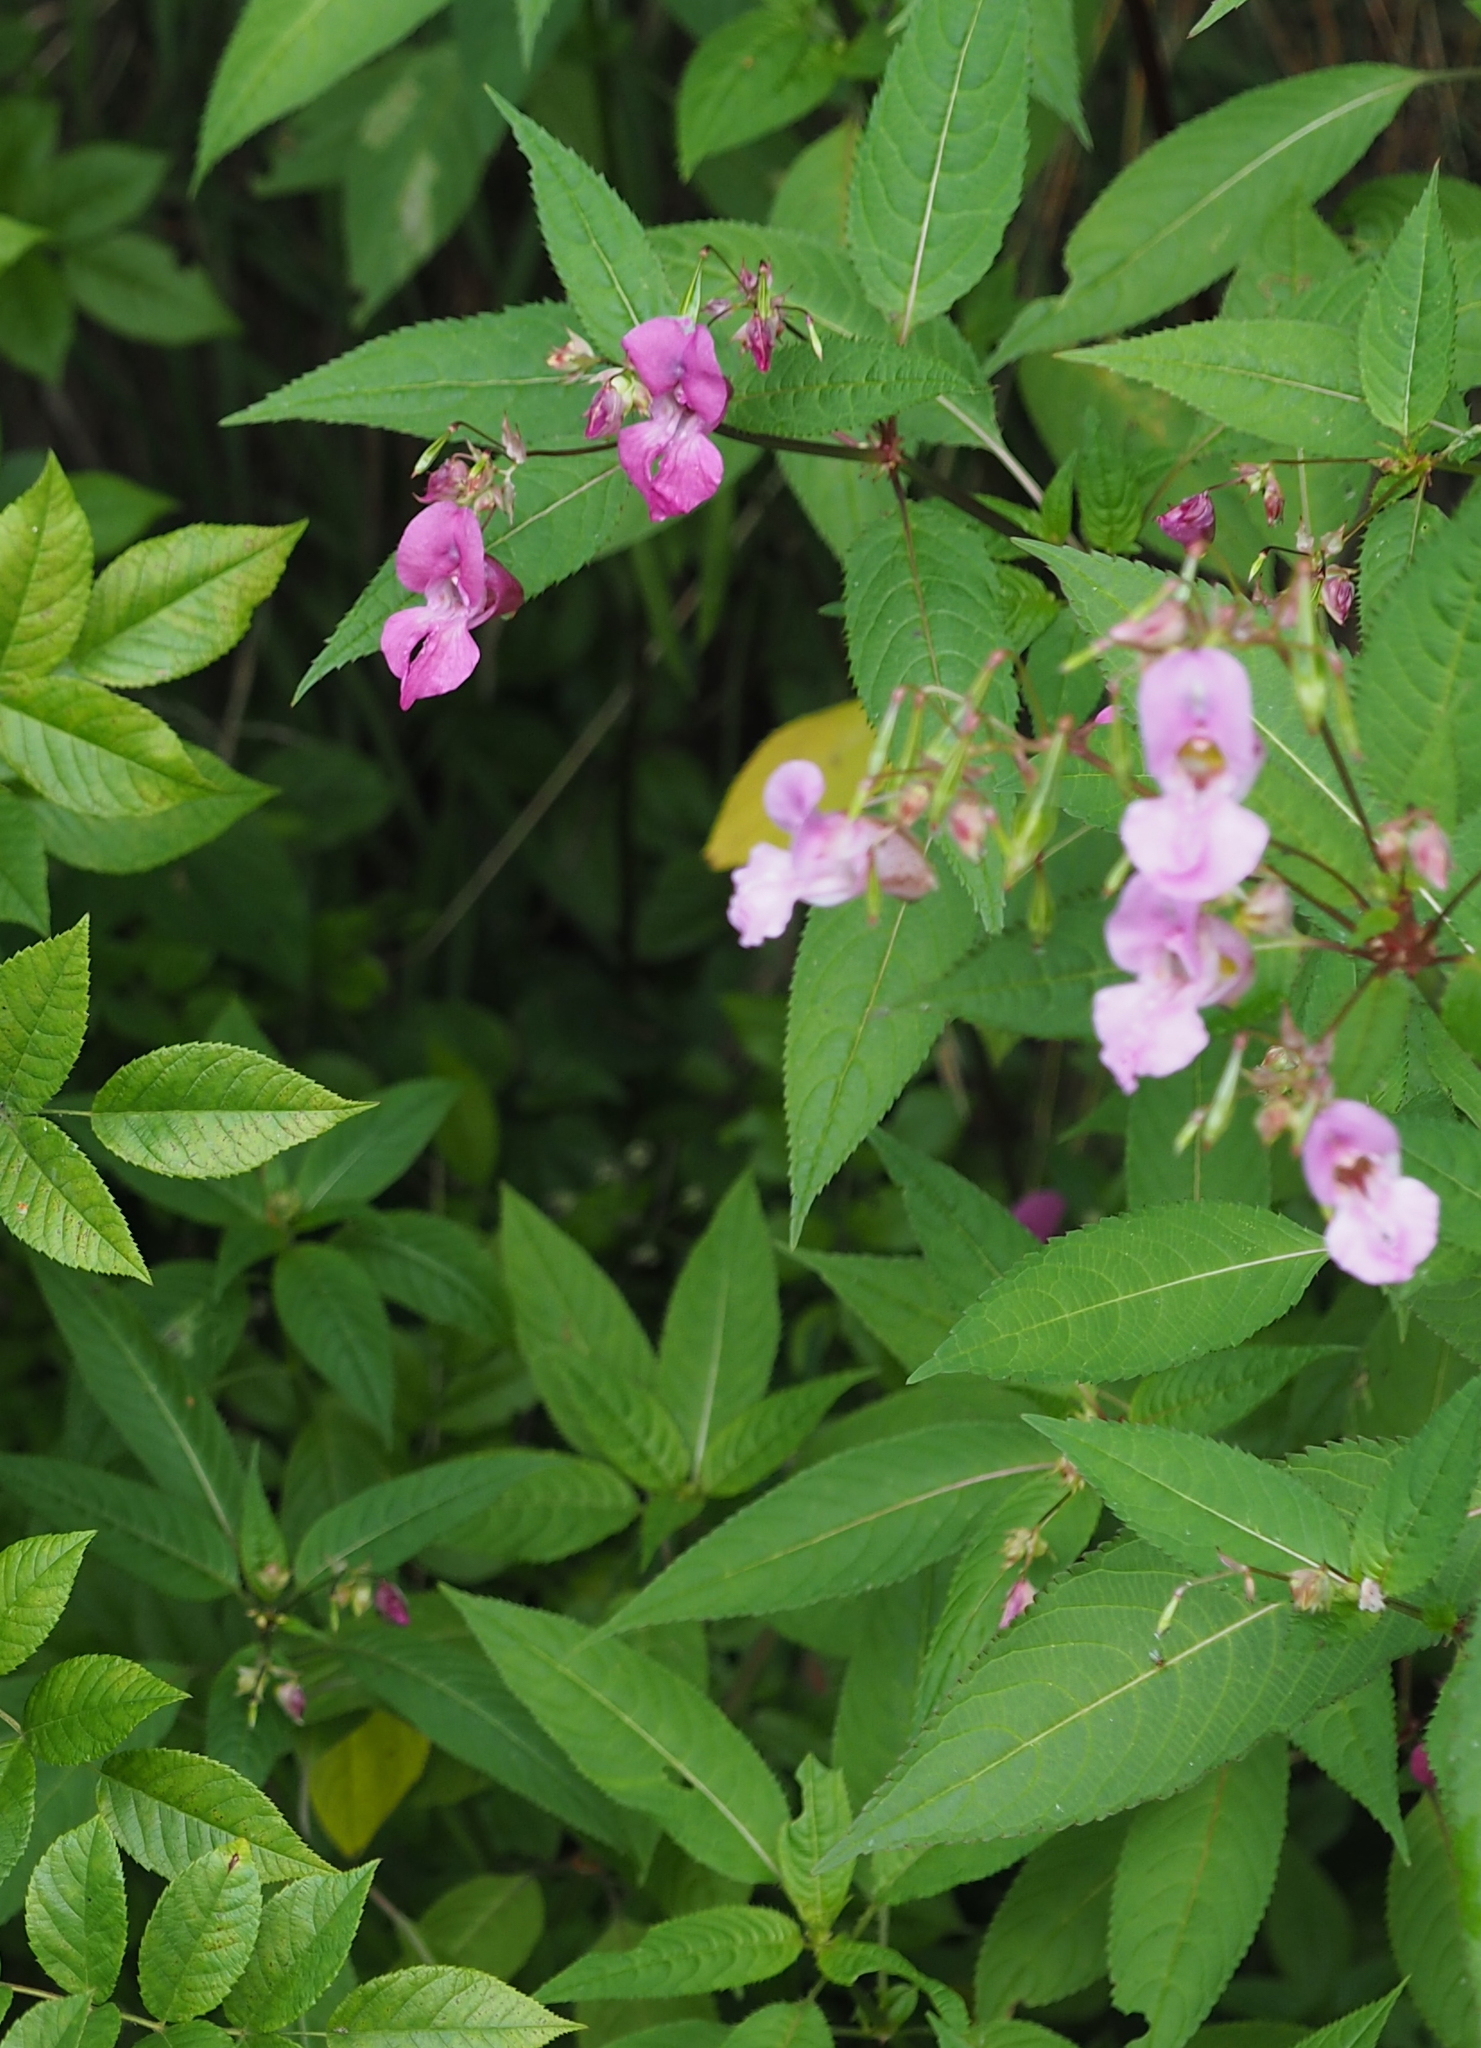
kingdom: Plantae
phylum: Tracheophyta
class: Magnoliopsida
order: Ericales
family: Balsaminaceae
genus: Impatiens
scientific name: Impatiens glandulifera
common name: Himalayan balsam
